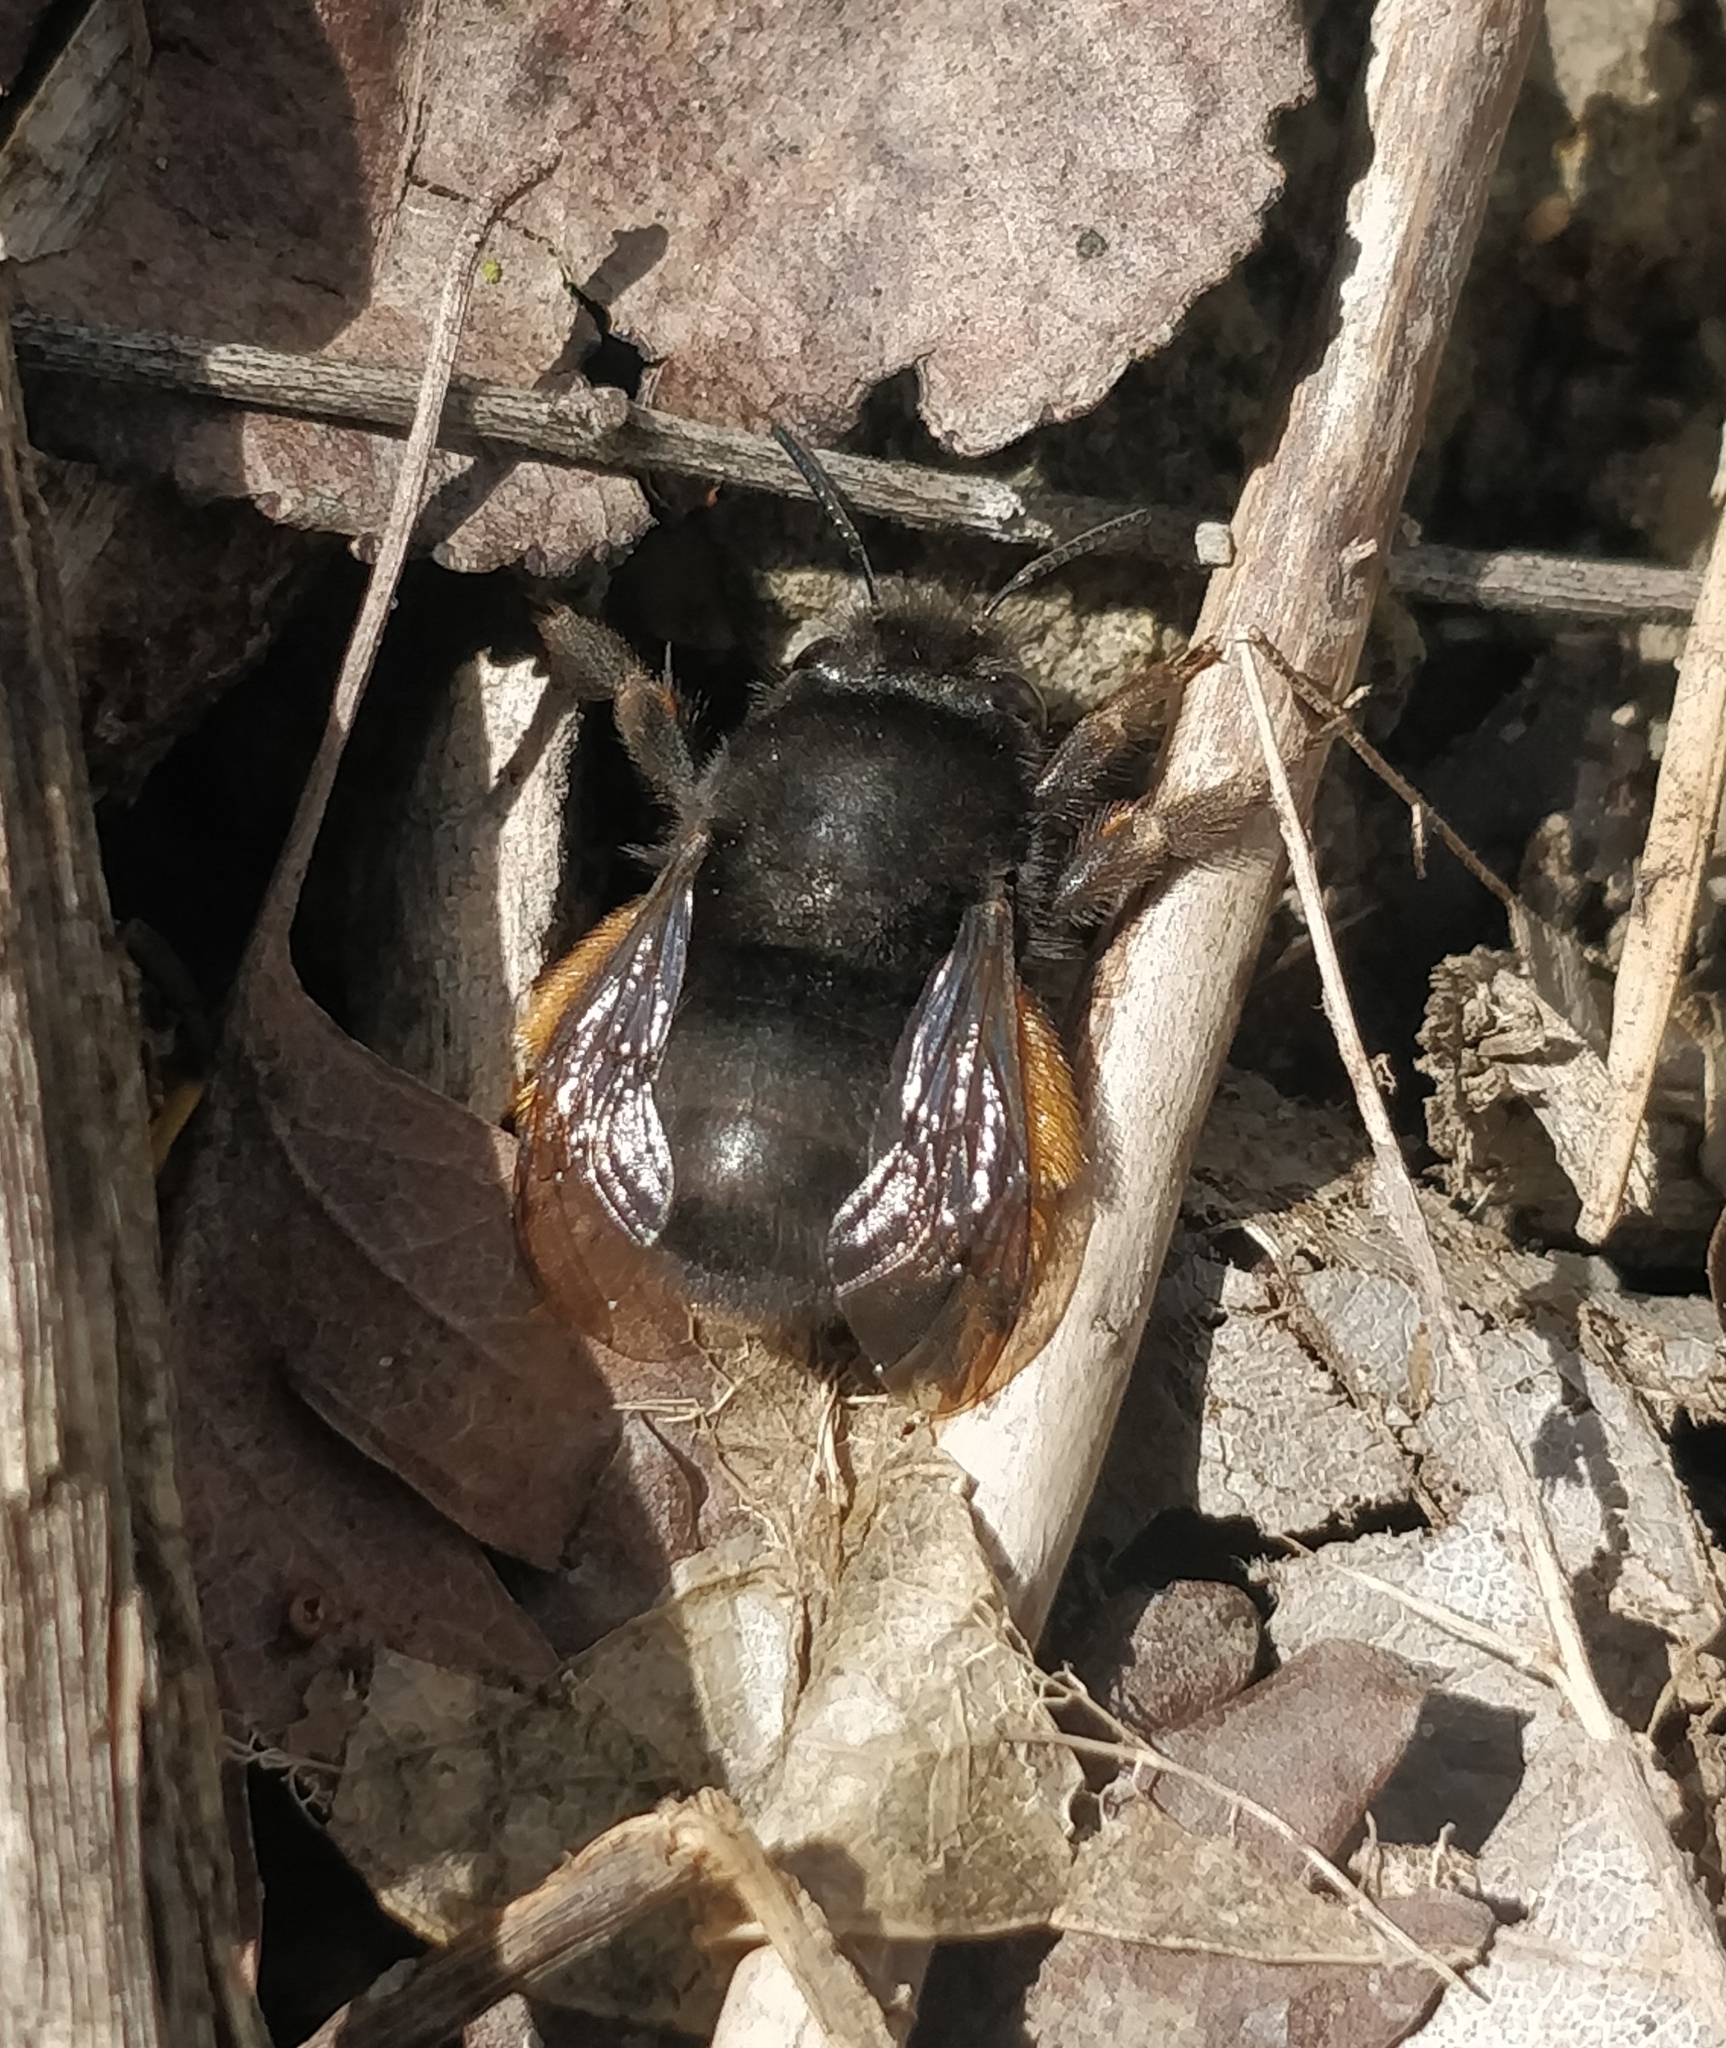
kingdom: Animalia
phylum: Arthropoda
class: Insecta
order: Hymenoptera
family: Apidae
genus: Anthophora
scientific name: Anthophora plumipes
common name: Hairy-footed flower bee
